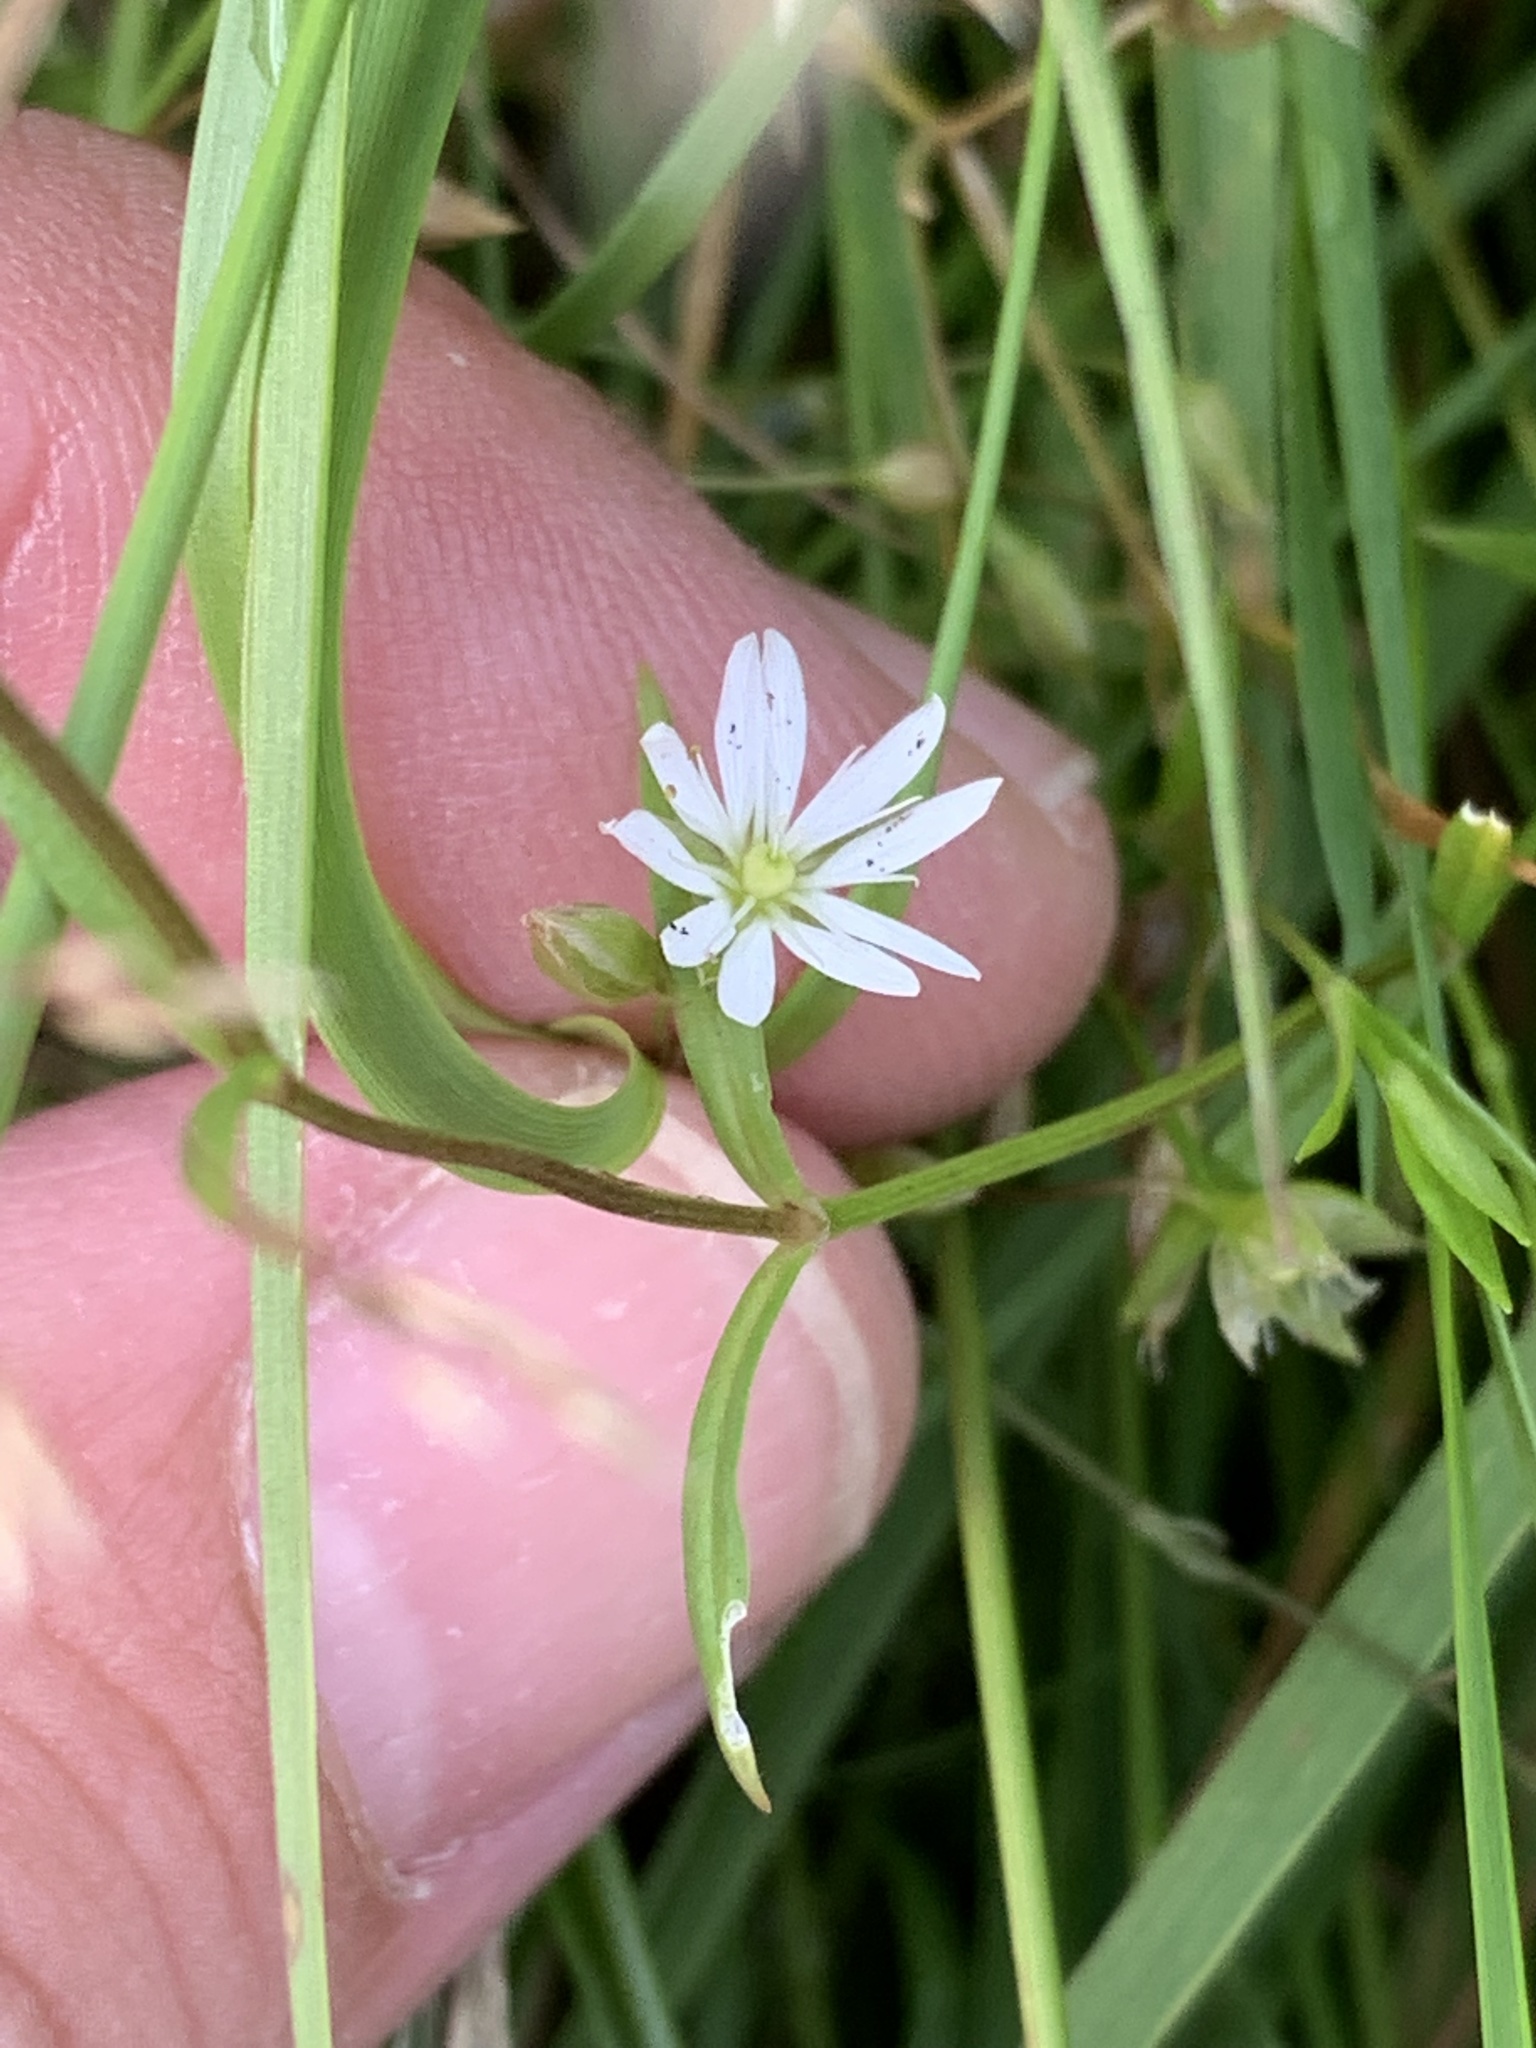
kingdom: Plantae
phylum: Tracheophyta
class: Magnoliopsida
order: Caryophyllales
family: Caryophyllaceae
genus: Stellaria
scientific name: Stellaria graminea
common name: Grass-like starwort
